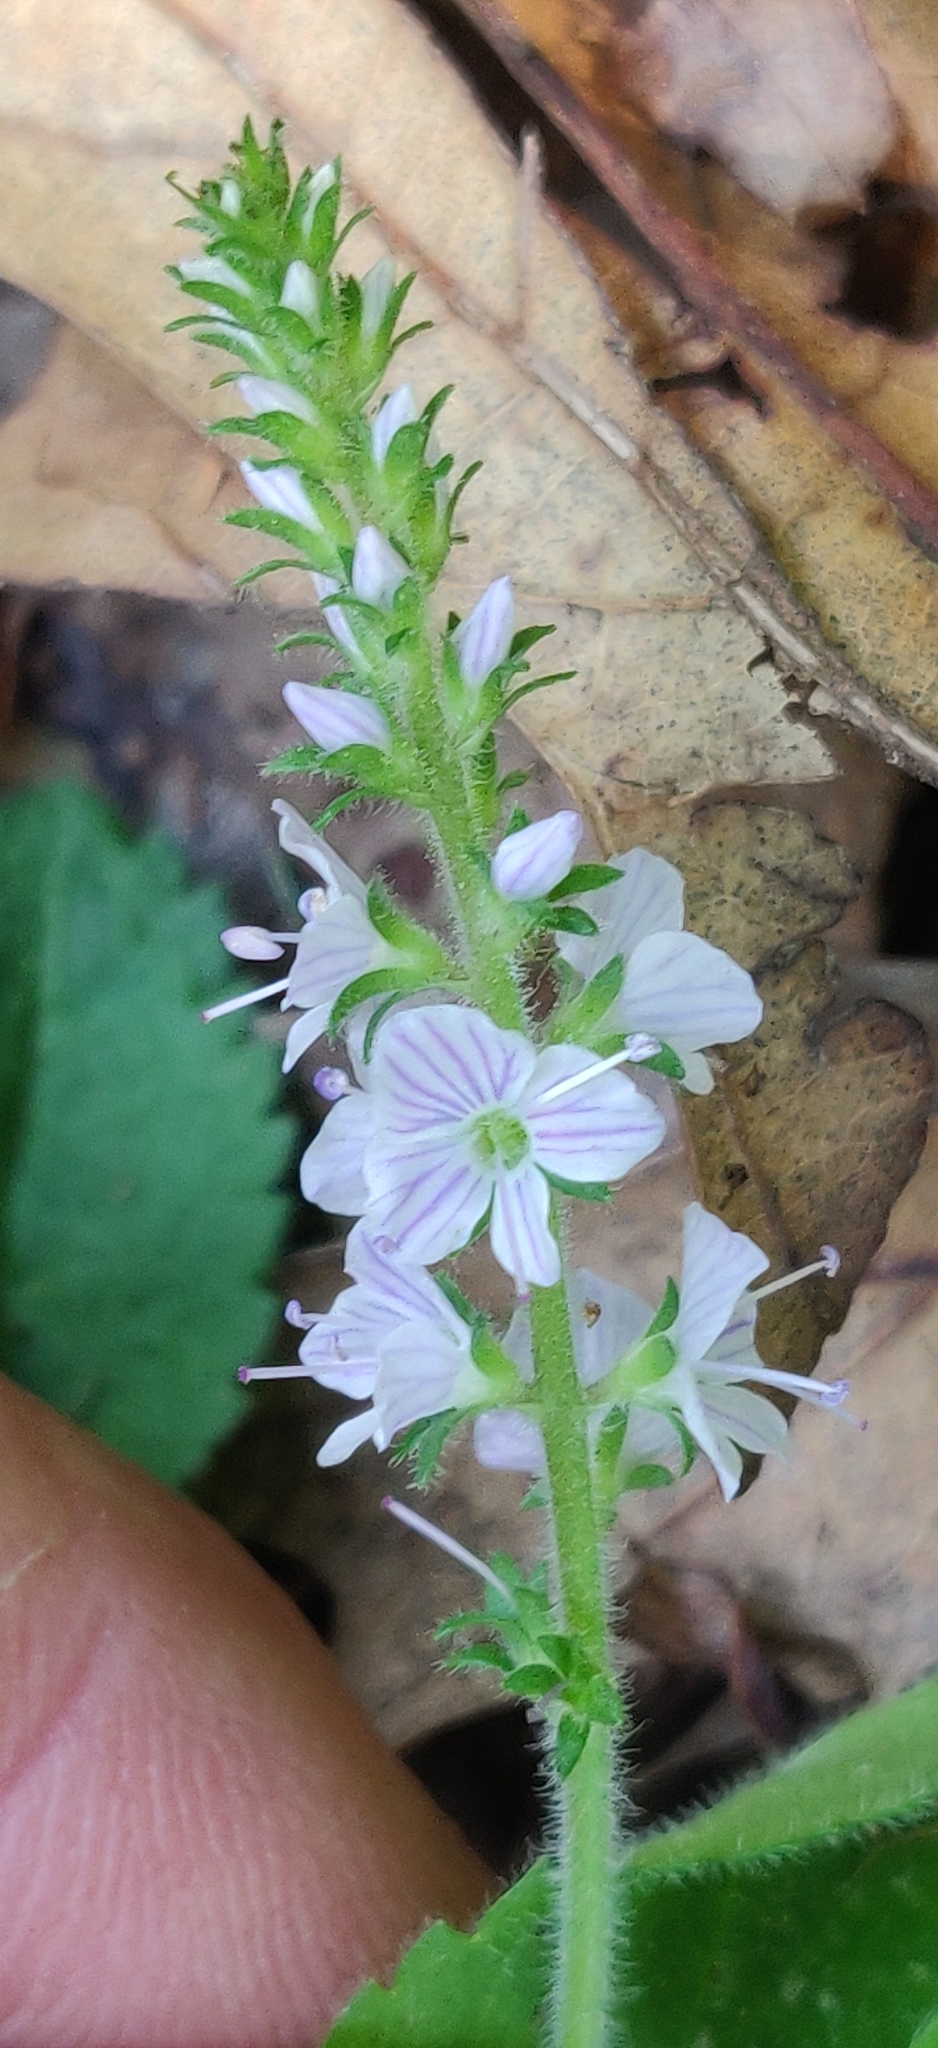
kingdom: Plantae
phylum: Tracheophyta
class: Magnoliopsida
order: Lamiales
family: Plantaginaceae
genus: Veronica
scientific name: Veronica officinalis
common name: Common speedwell
